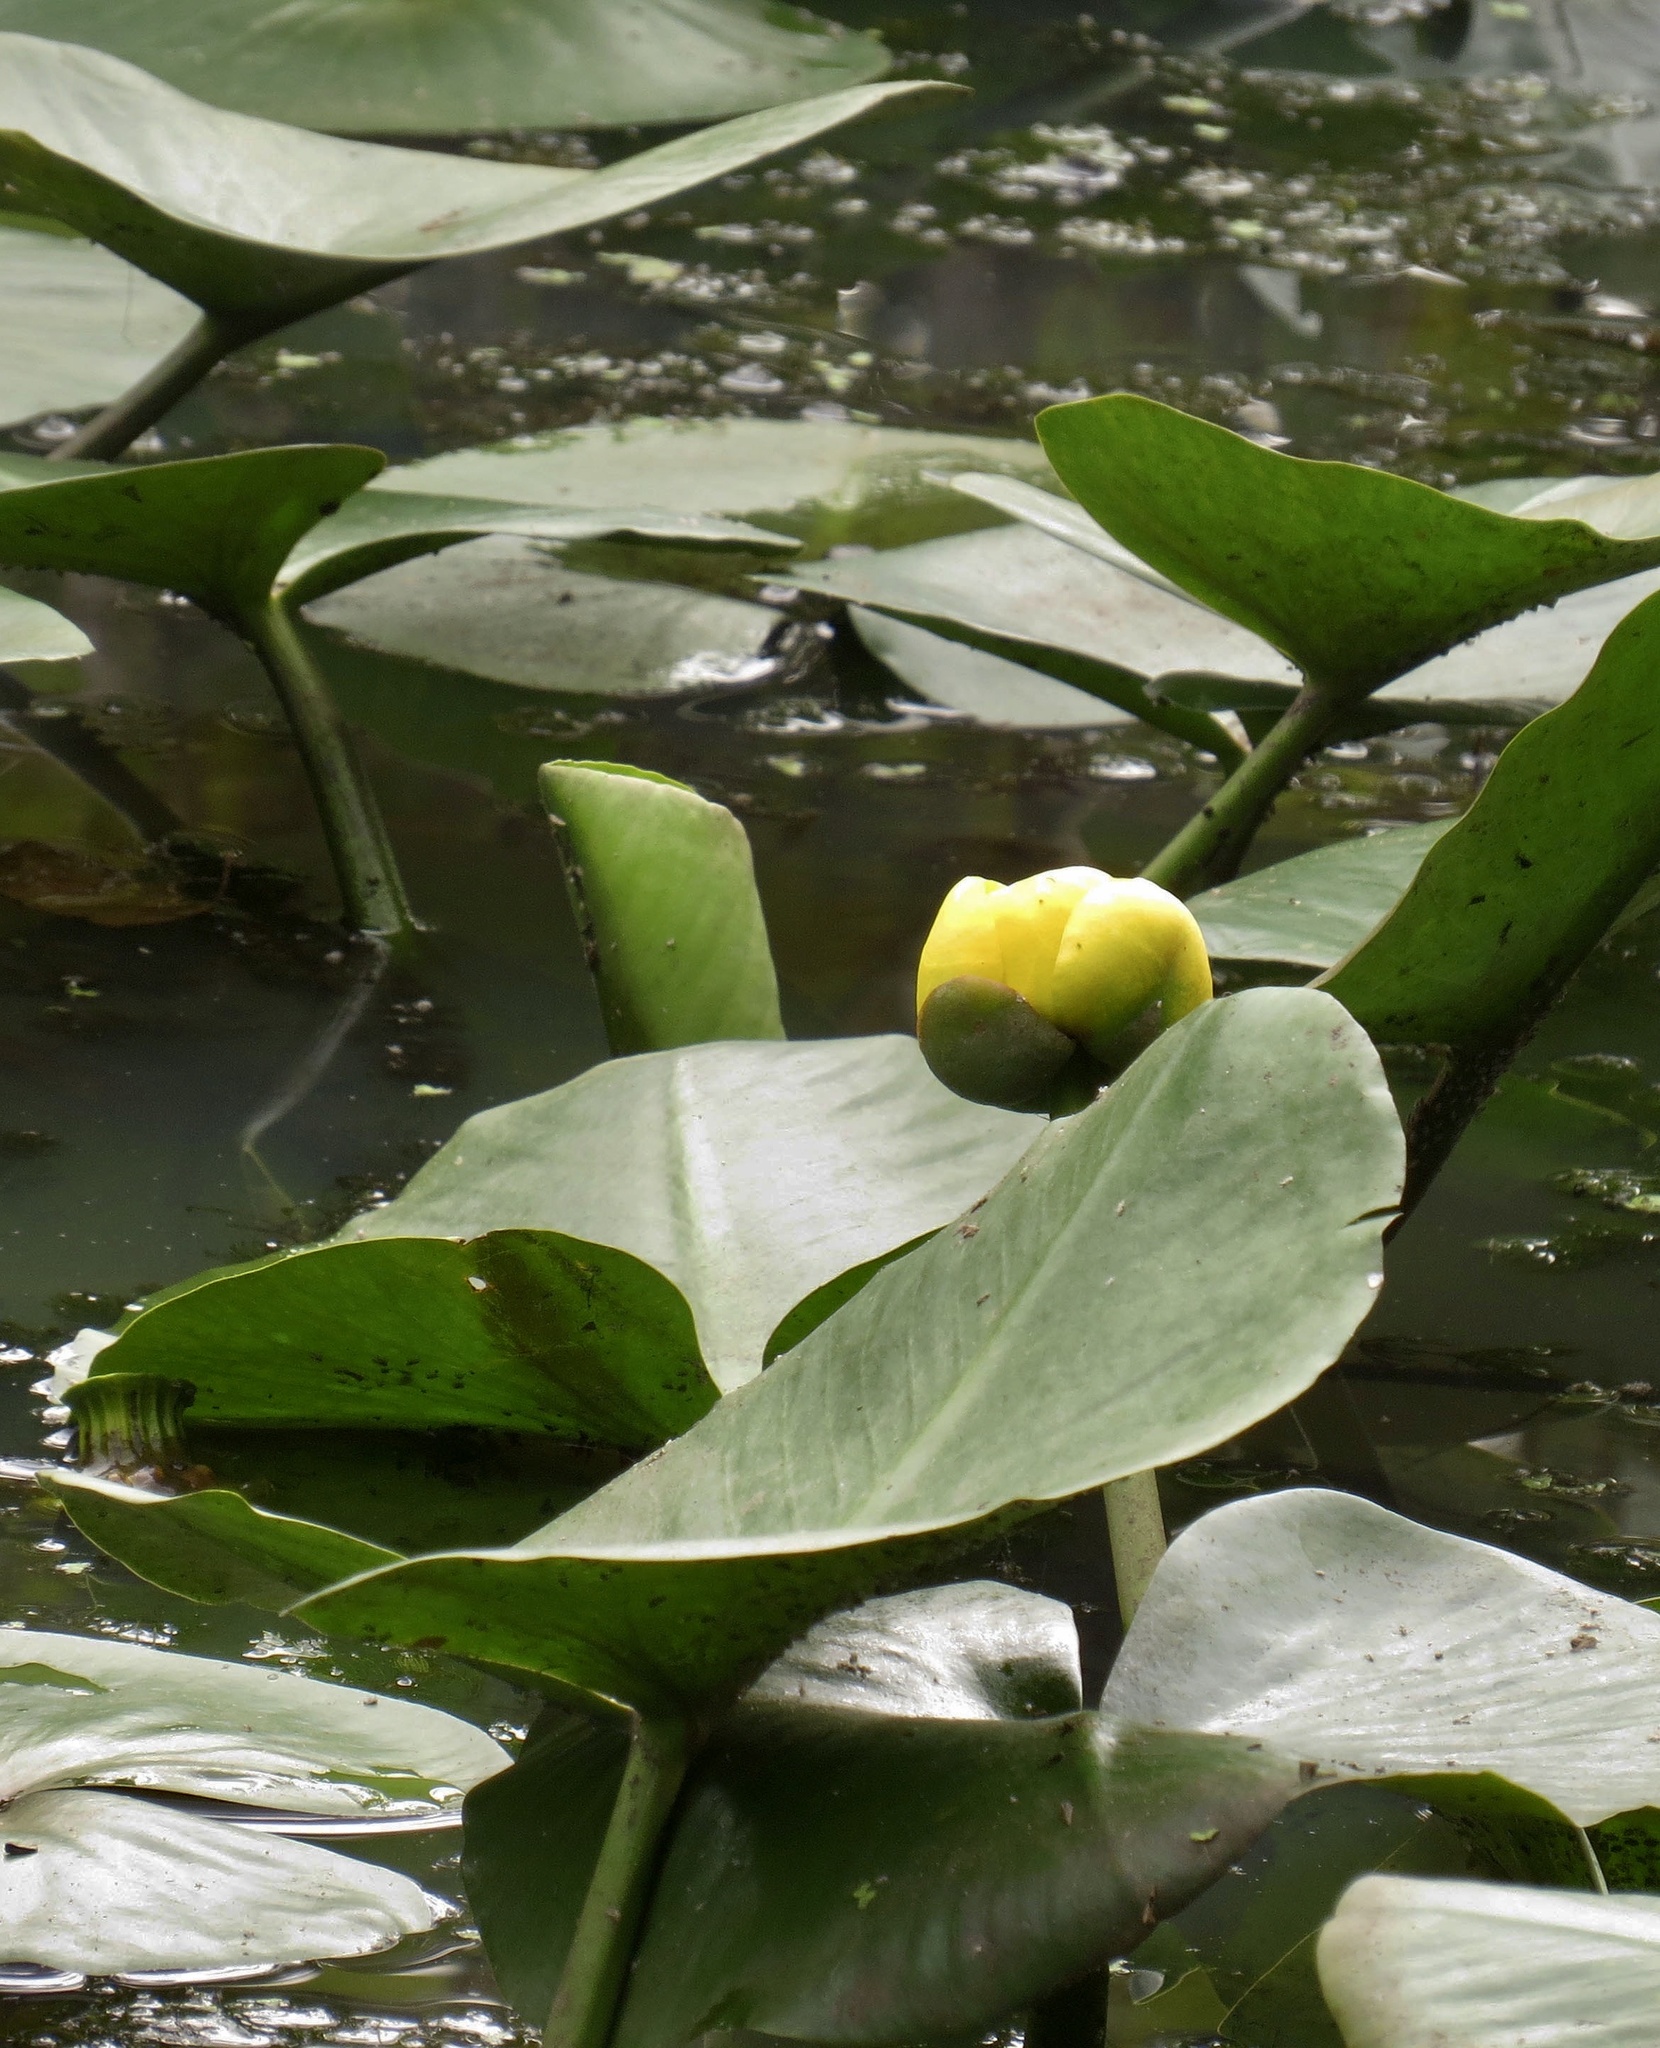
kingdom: Plantae
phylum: Tracheophyta
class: Magnoliopsida
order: Nymphaeales
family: Nymphaeaceae
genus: Nuphar
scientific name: Nuphar advena
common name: Spatter-dock
